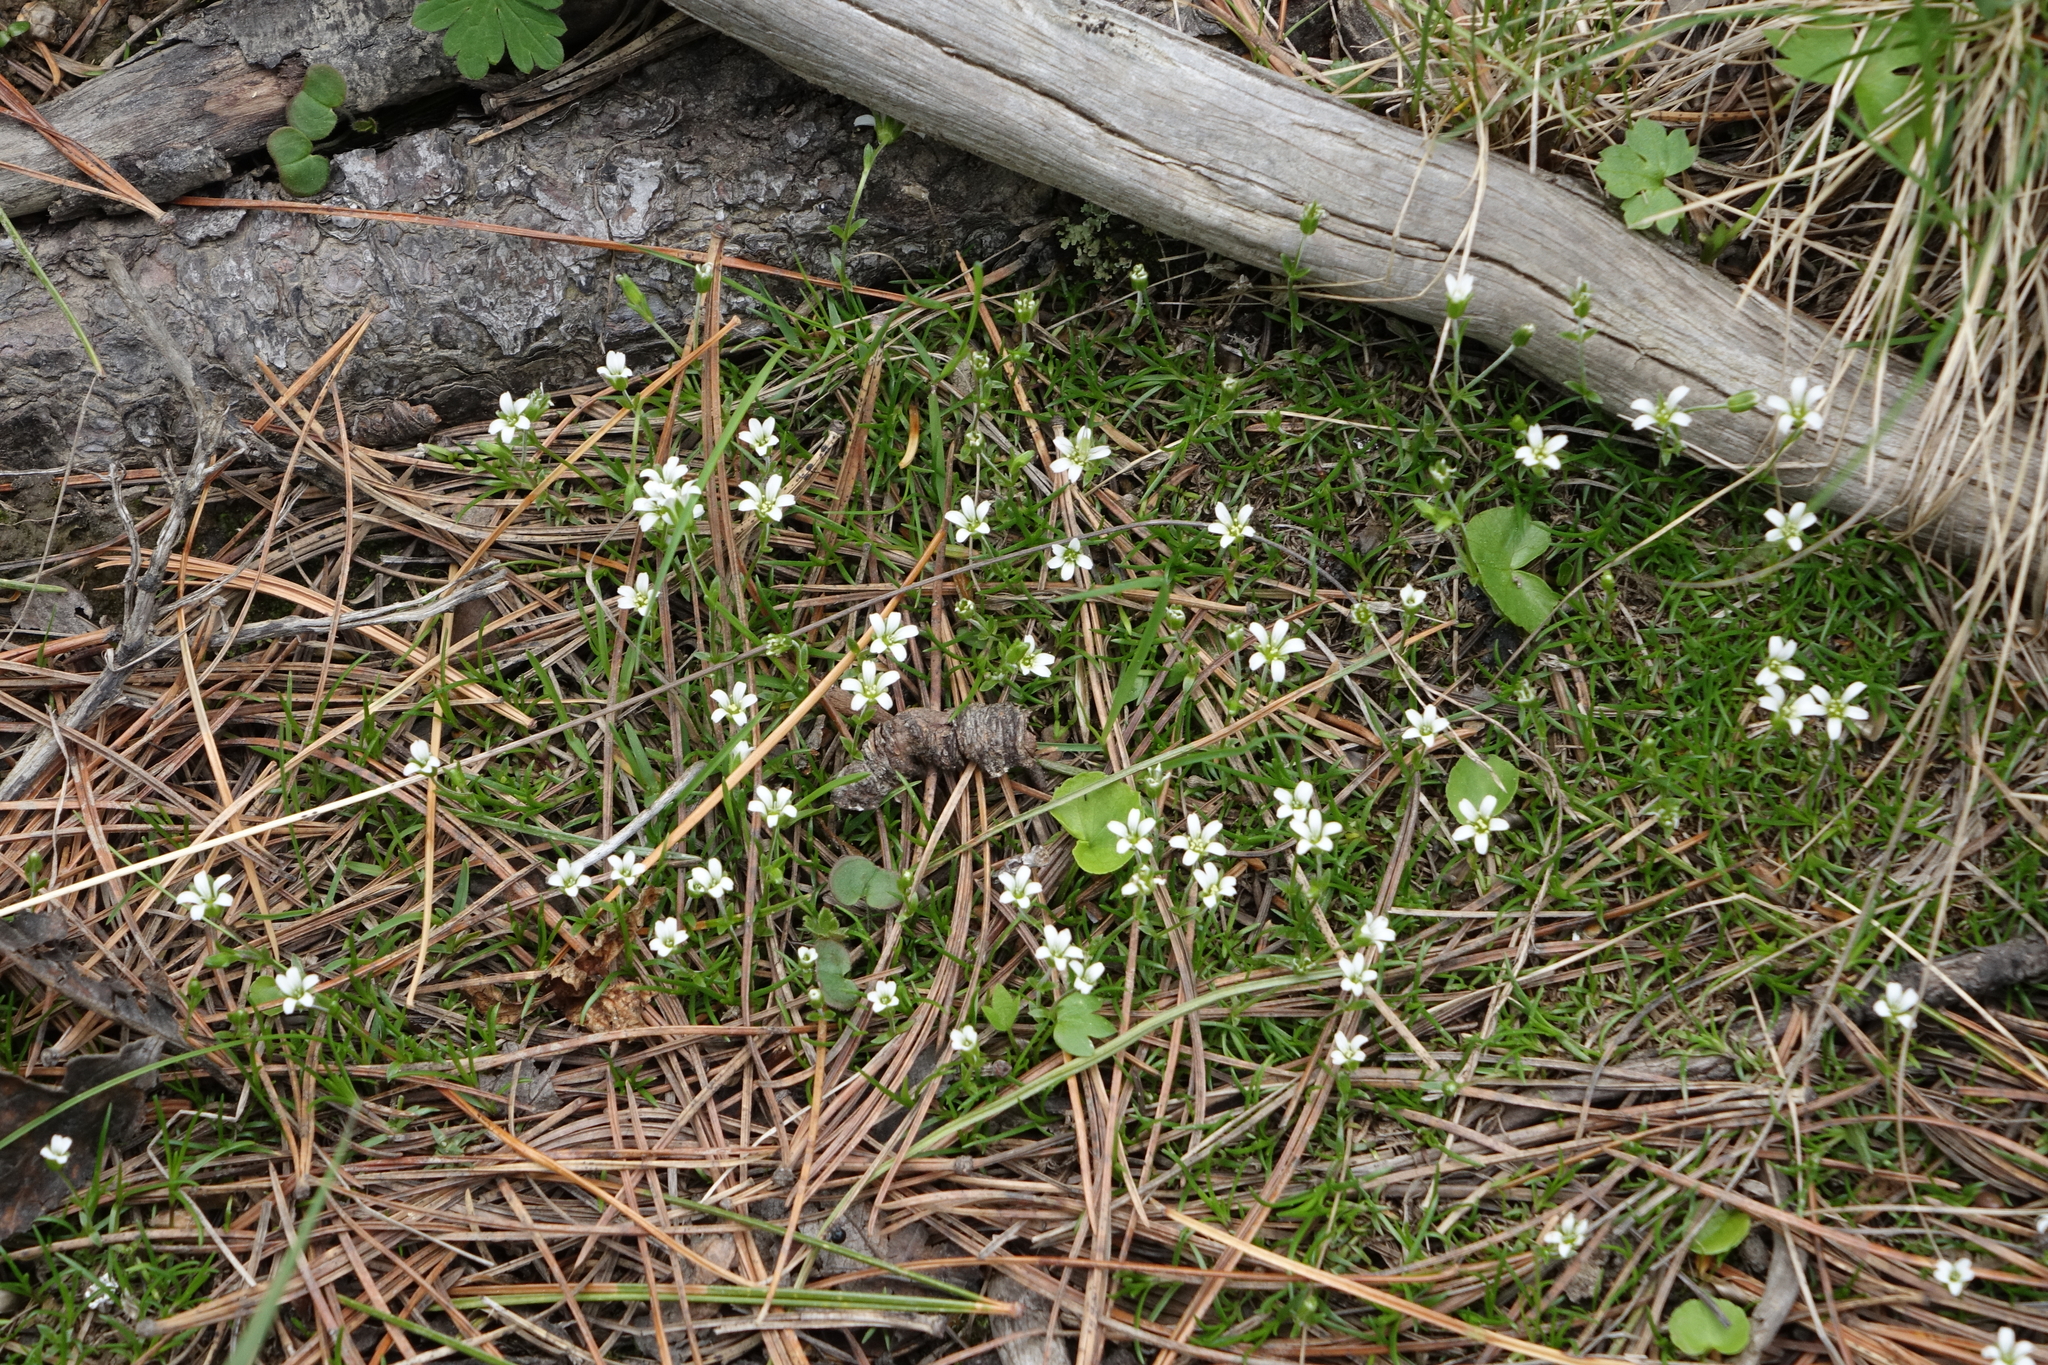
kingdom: Plantae
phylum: Tracheophyta
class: Magnoliopsida
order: Caryophyllales
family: Caryophyllaceae
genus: Cherleria
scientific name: Cherleria biflora
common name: Mountain sandwort
